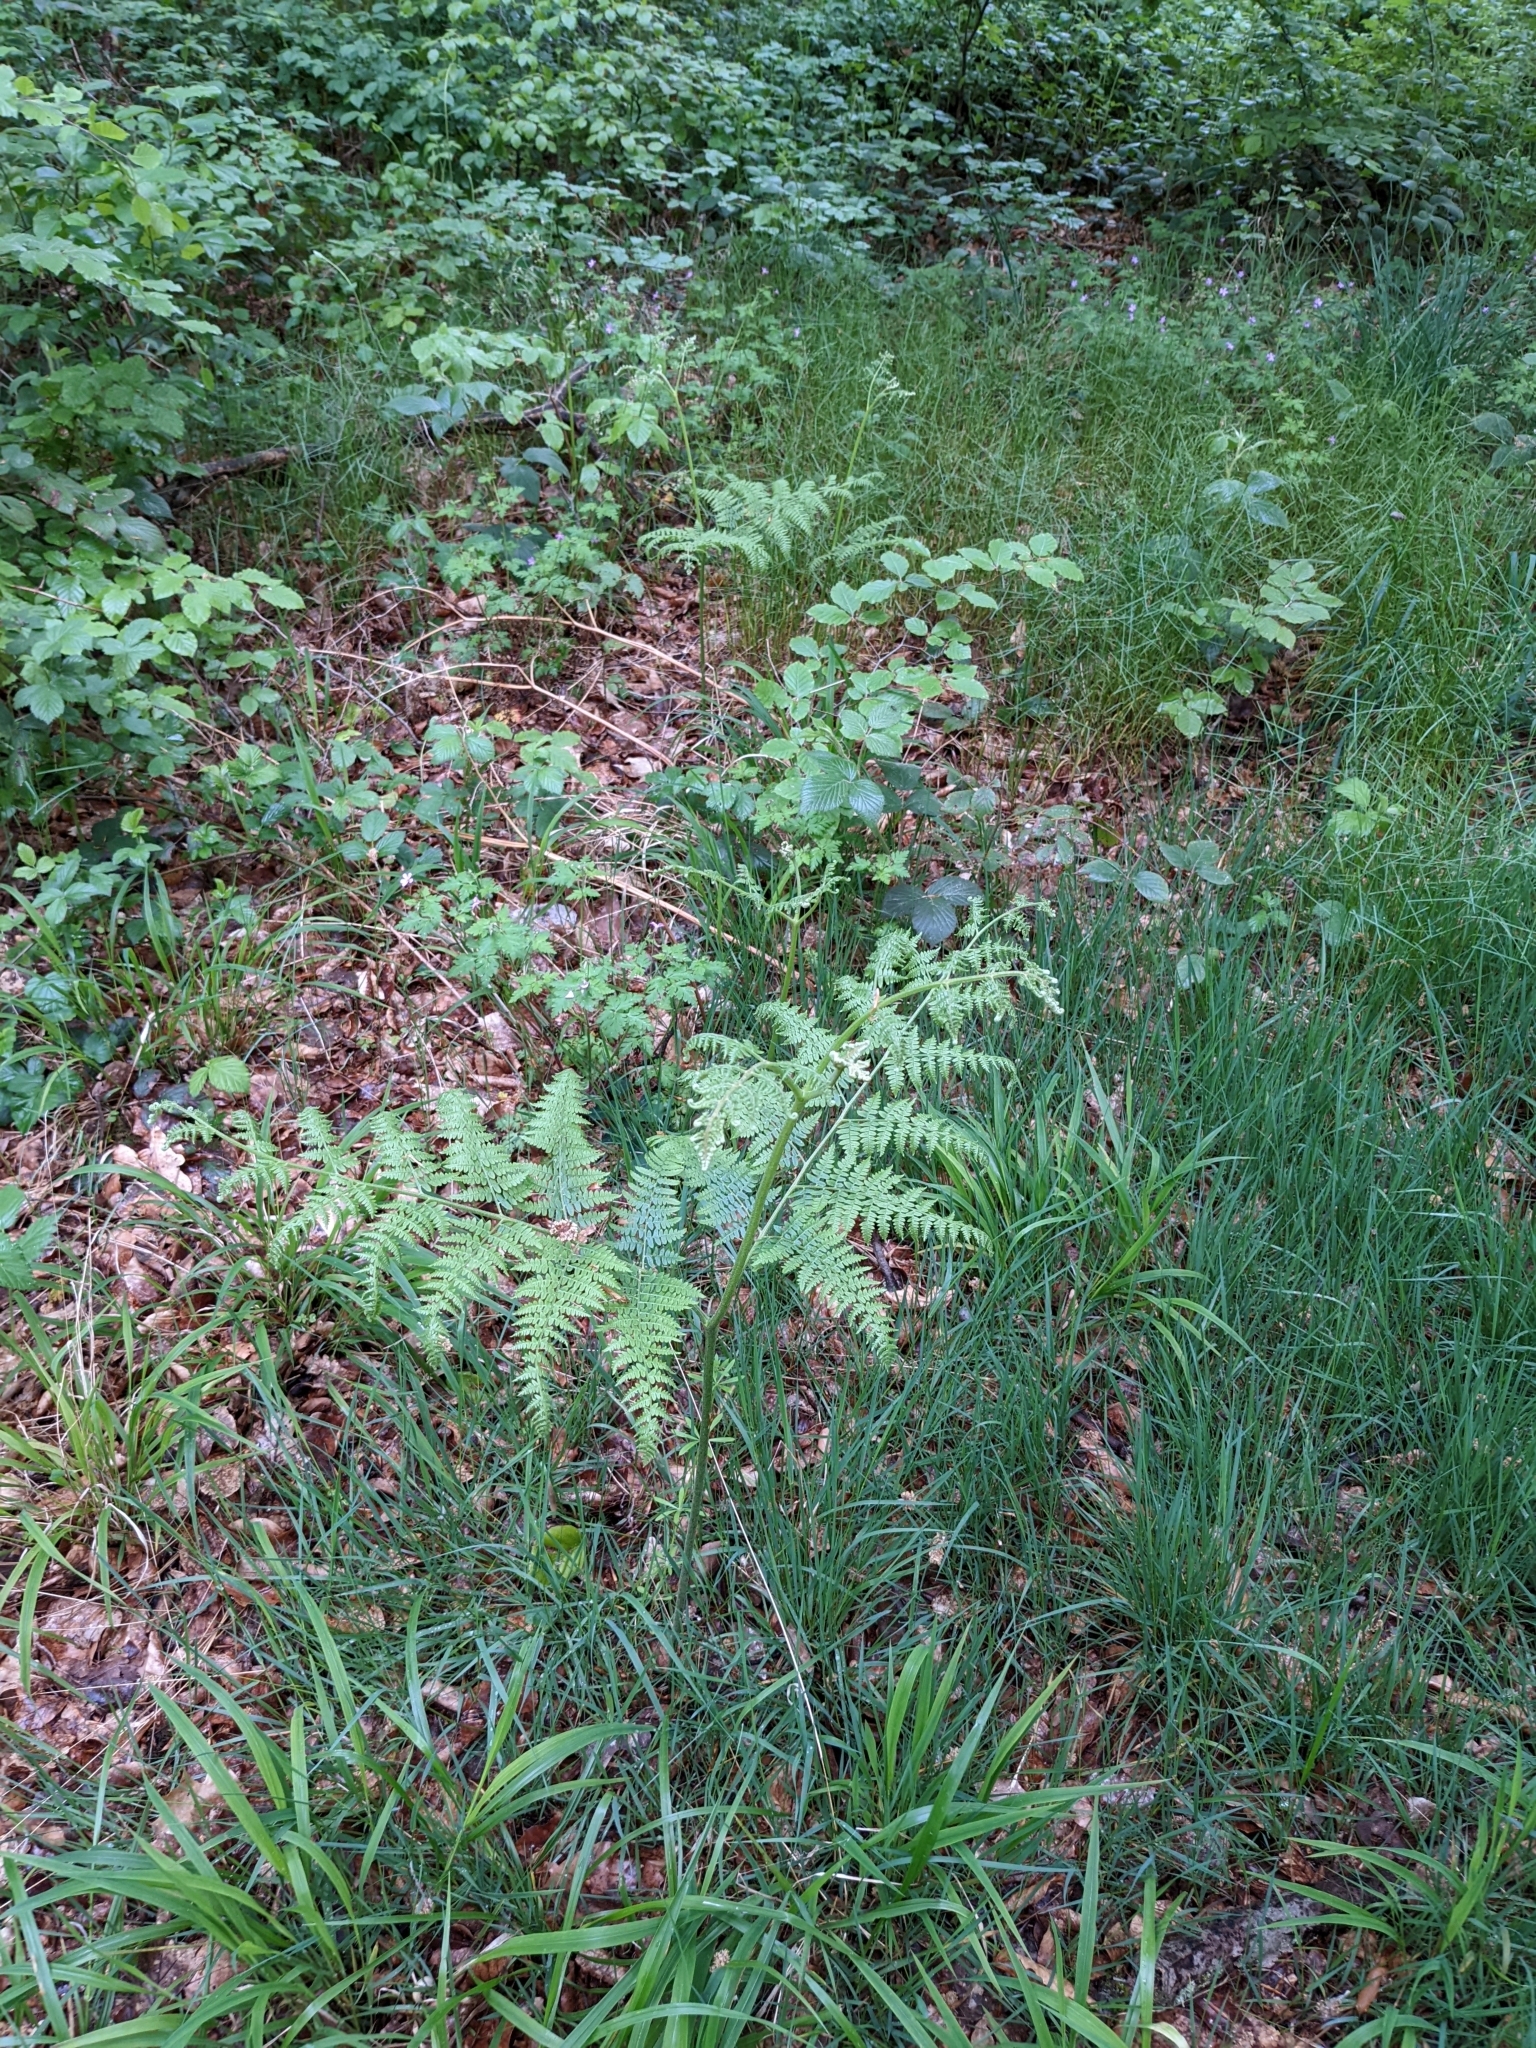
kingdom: Plantae
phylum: Tracheophyta
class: Polypodiopsida
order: Polypodiales
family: Dennstaedtiaceae
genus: Pteridium
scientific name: Pteridium aquilinum
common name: Bracken
